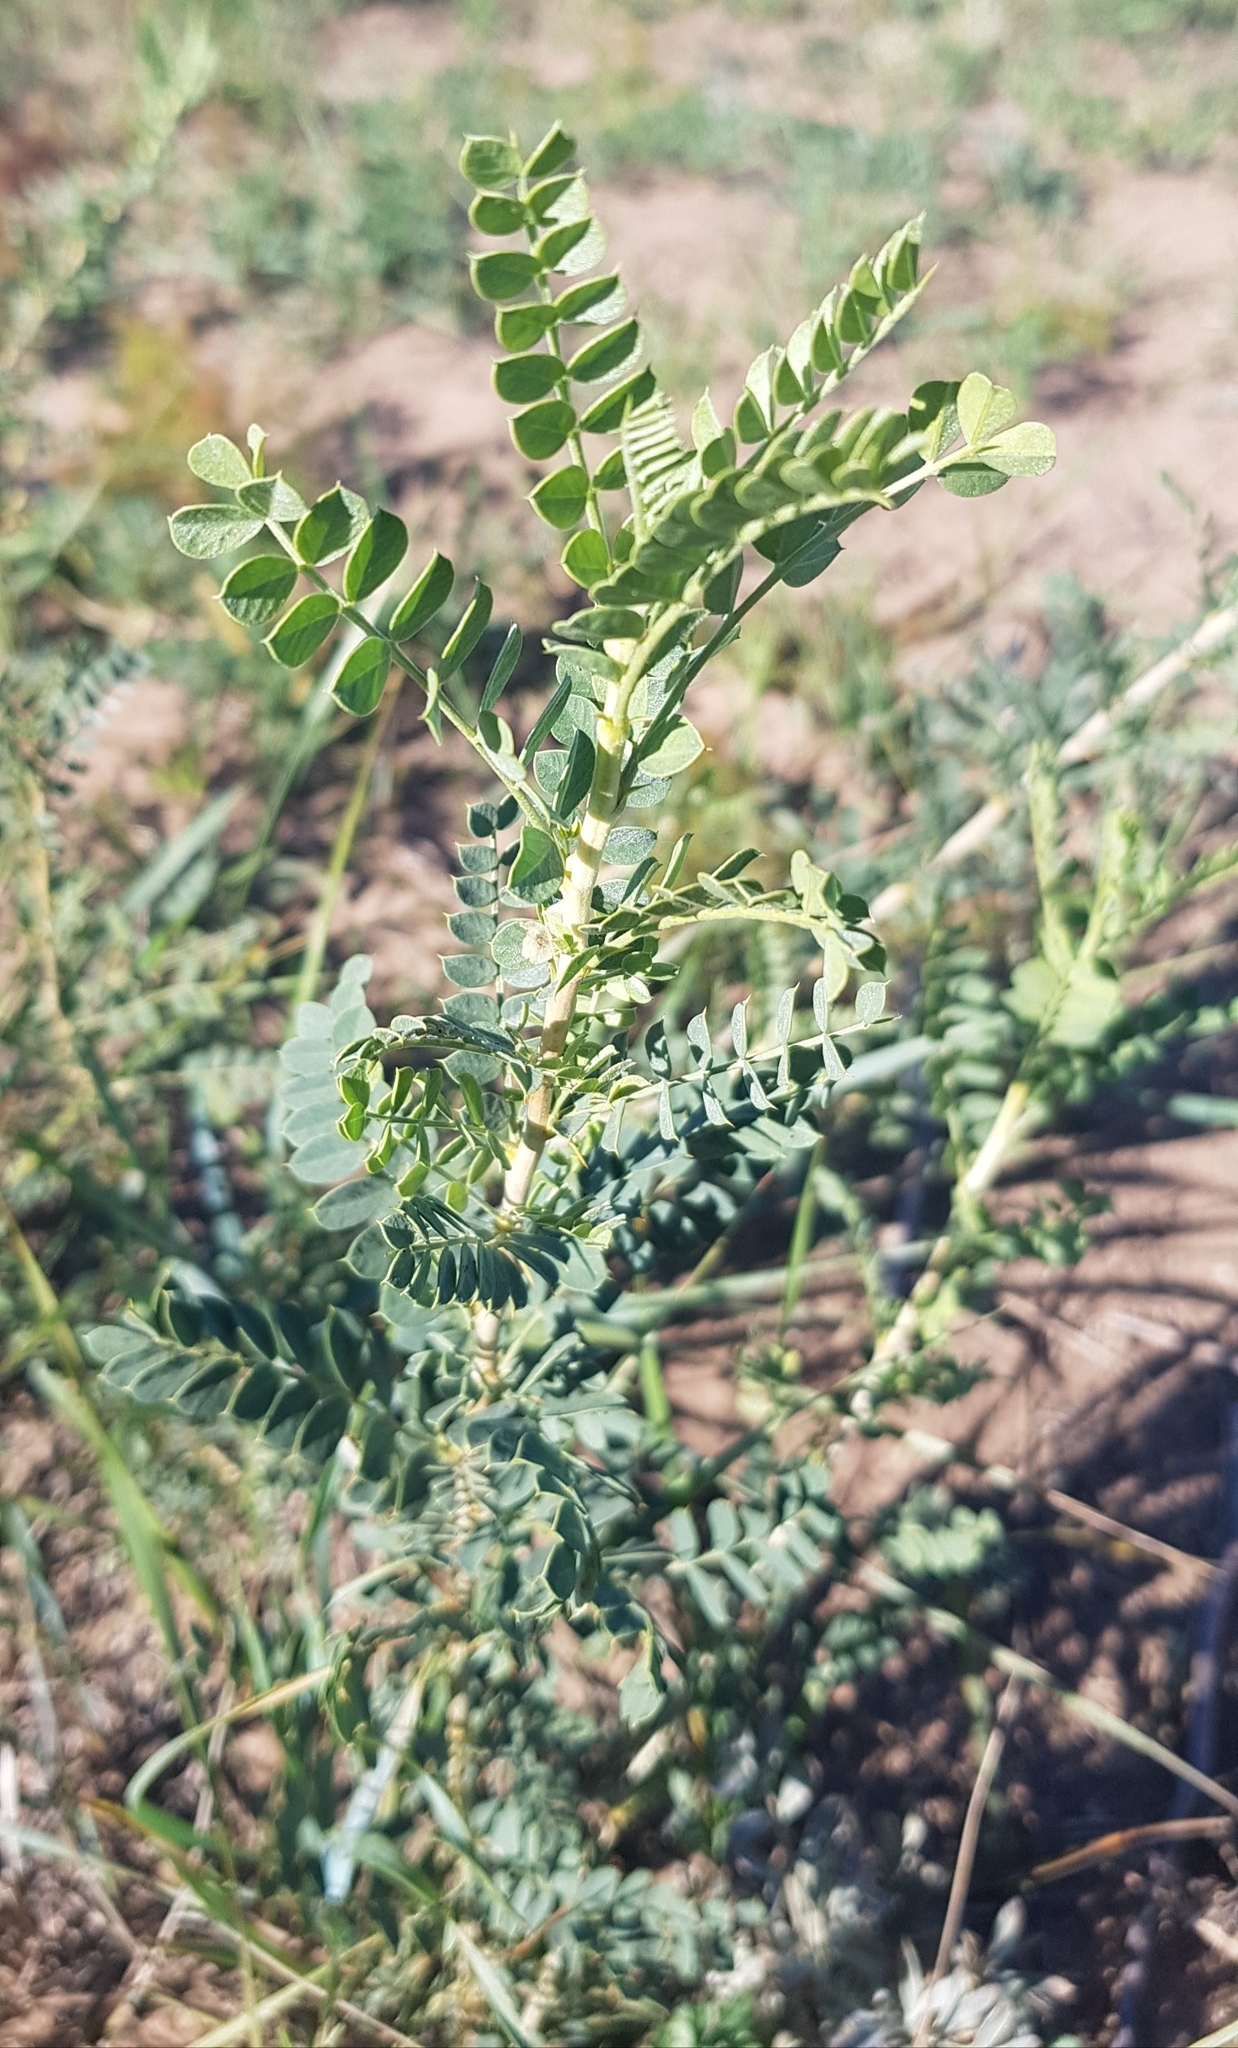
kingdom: Plantae
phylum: Tracheophyta
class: Magnoliopsida
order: Fabales
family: Fabaceae
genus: Caragana
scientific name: Caragana microphylla
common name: Littleleaf peashrub
